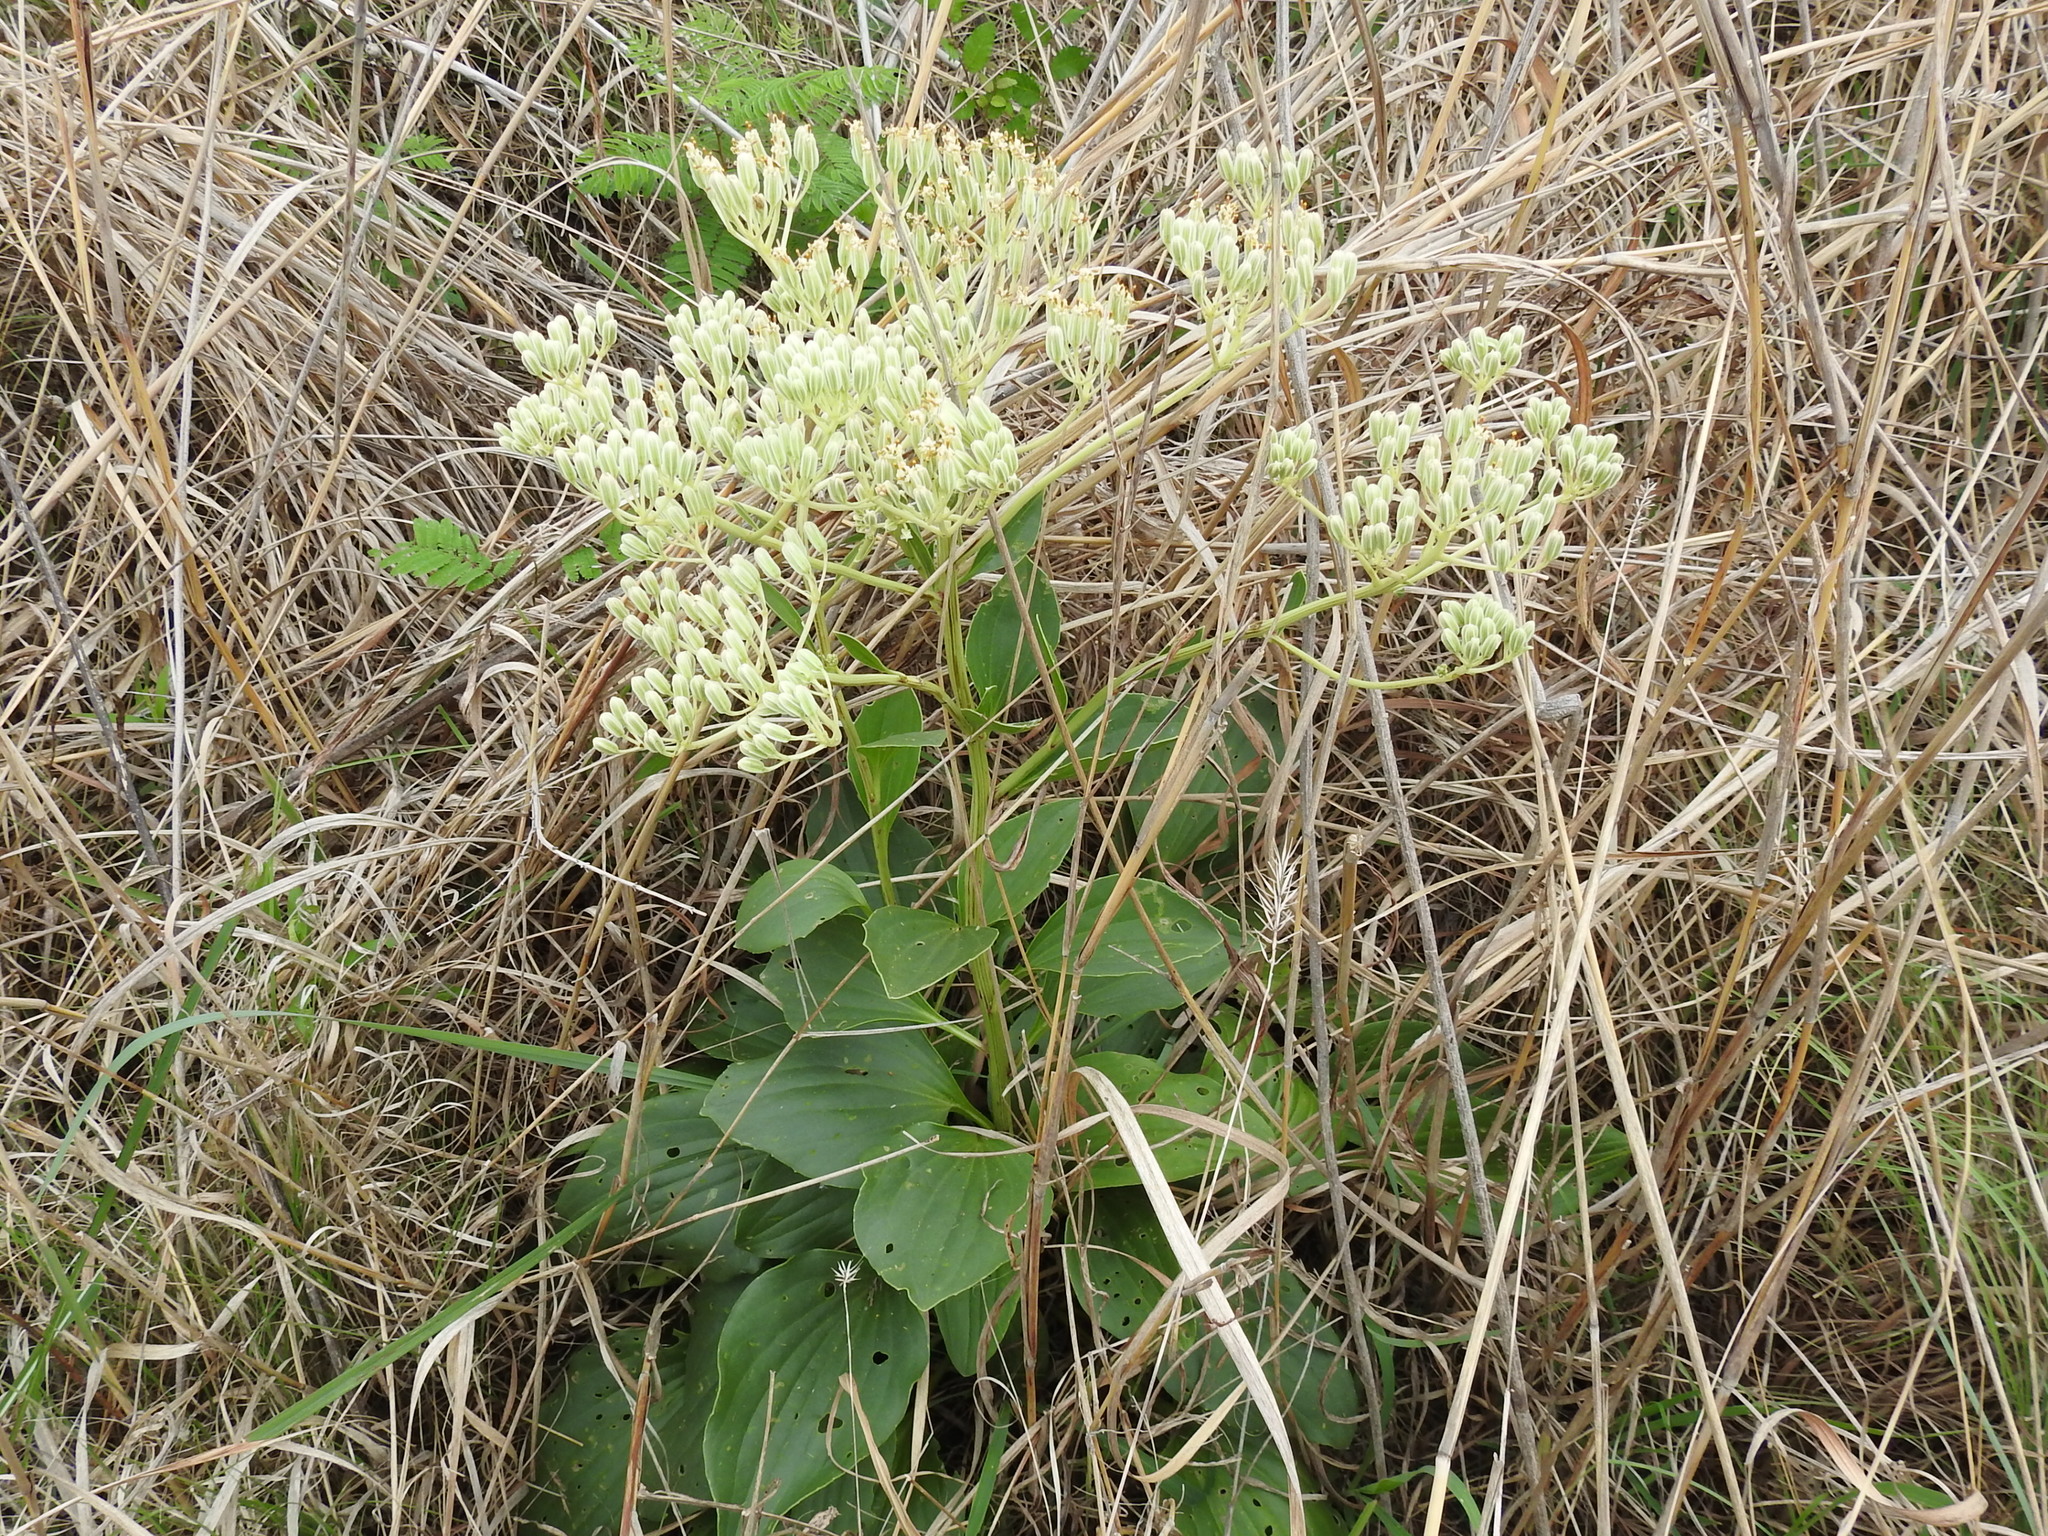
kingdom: Plantae
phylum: Tracheophyta
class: Magnoliopsida
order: Asterales
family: Asteraceae
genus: Arnoglossum
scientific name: Arnoglossum plantagineum
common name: Groove-stemmed indian-plantain
